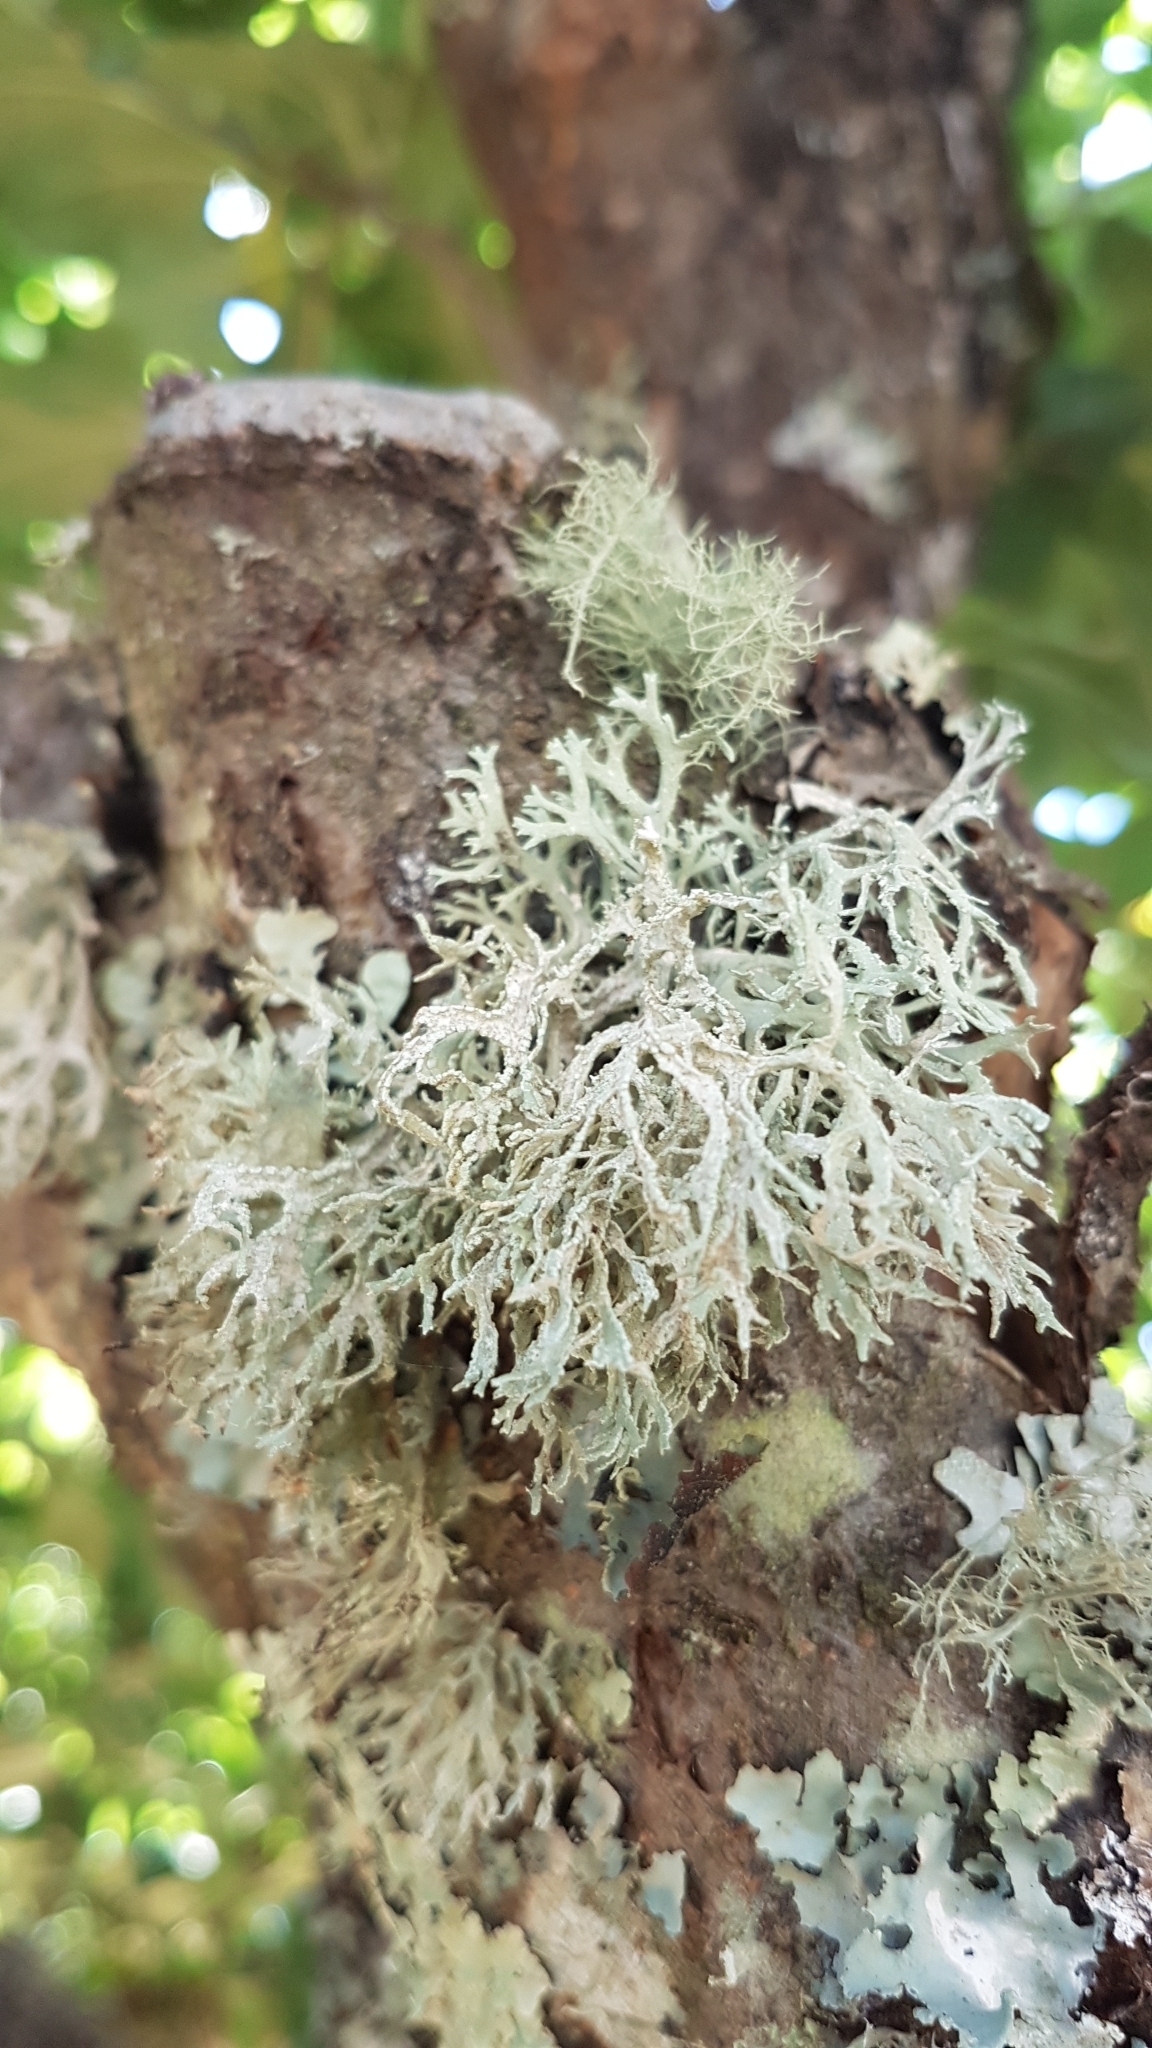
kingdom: Fungi
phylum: Ascomycota
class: Lecanoromycetes
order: Lecanorales
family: Parmeliaceae
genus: Evernia
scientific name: Evernia prunastri
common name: Oak moss
